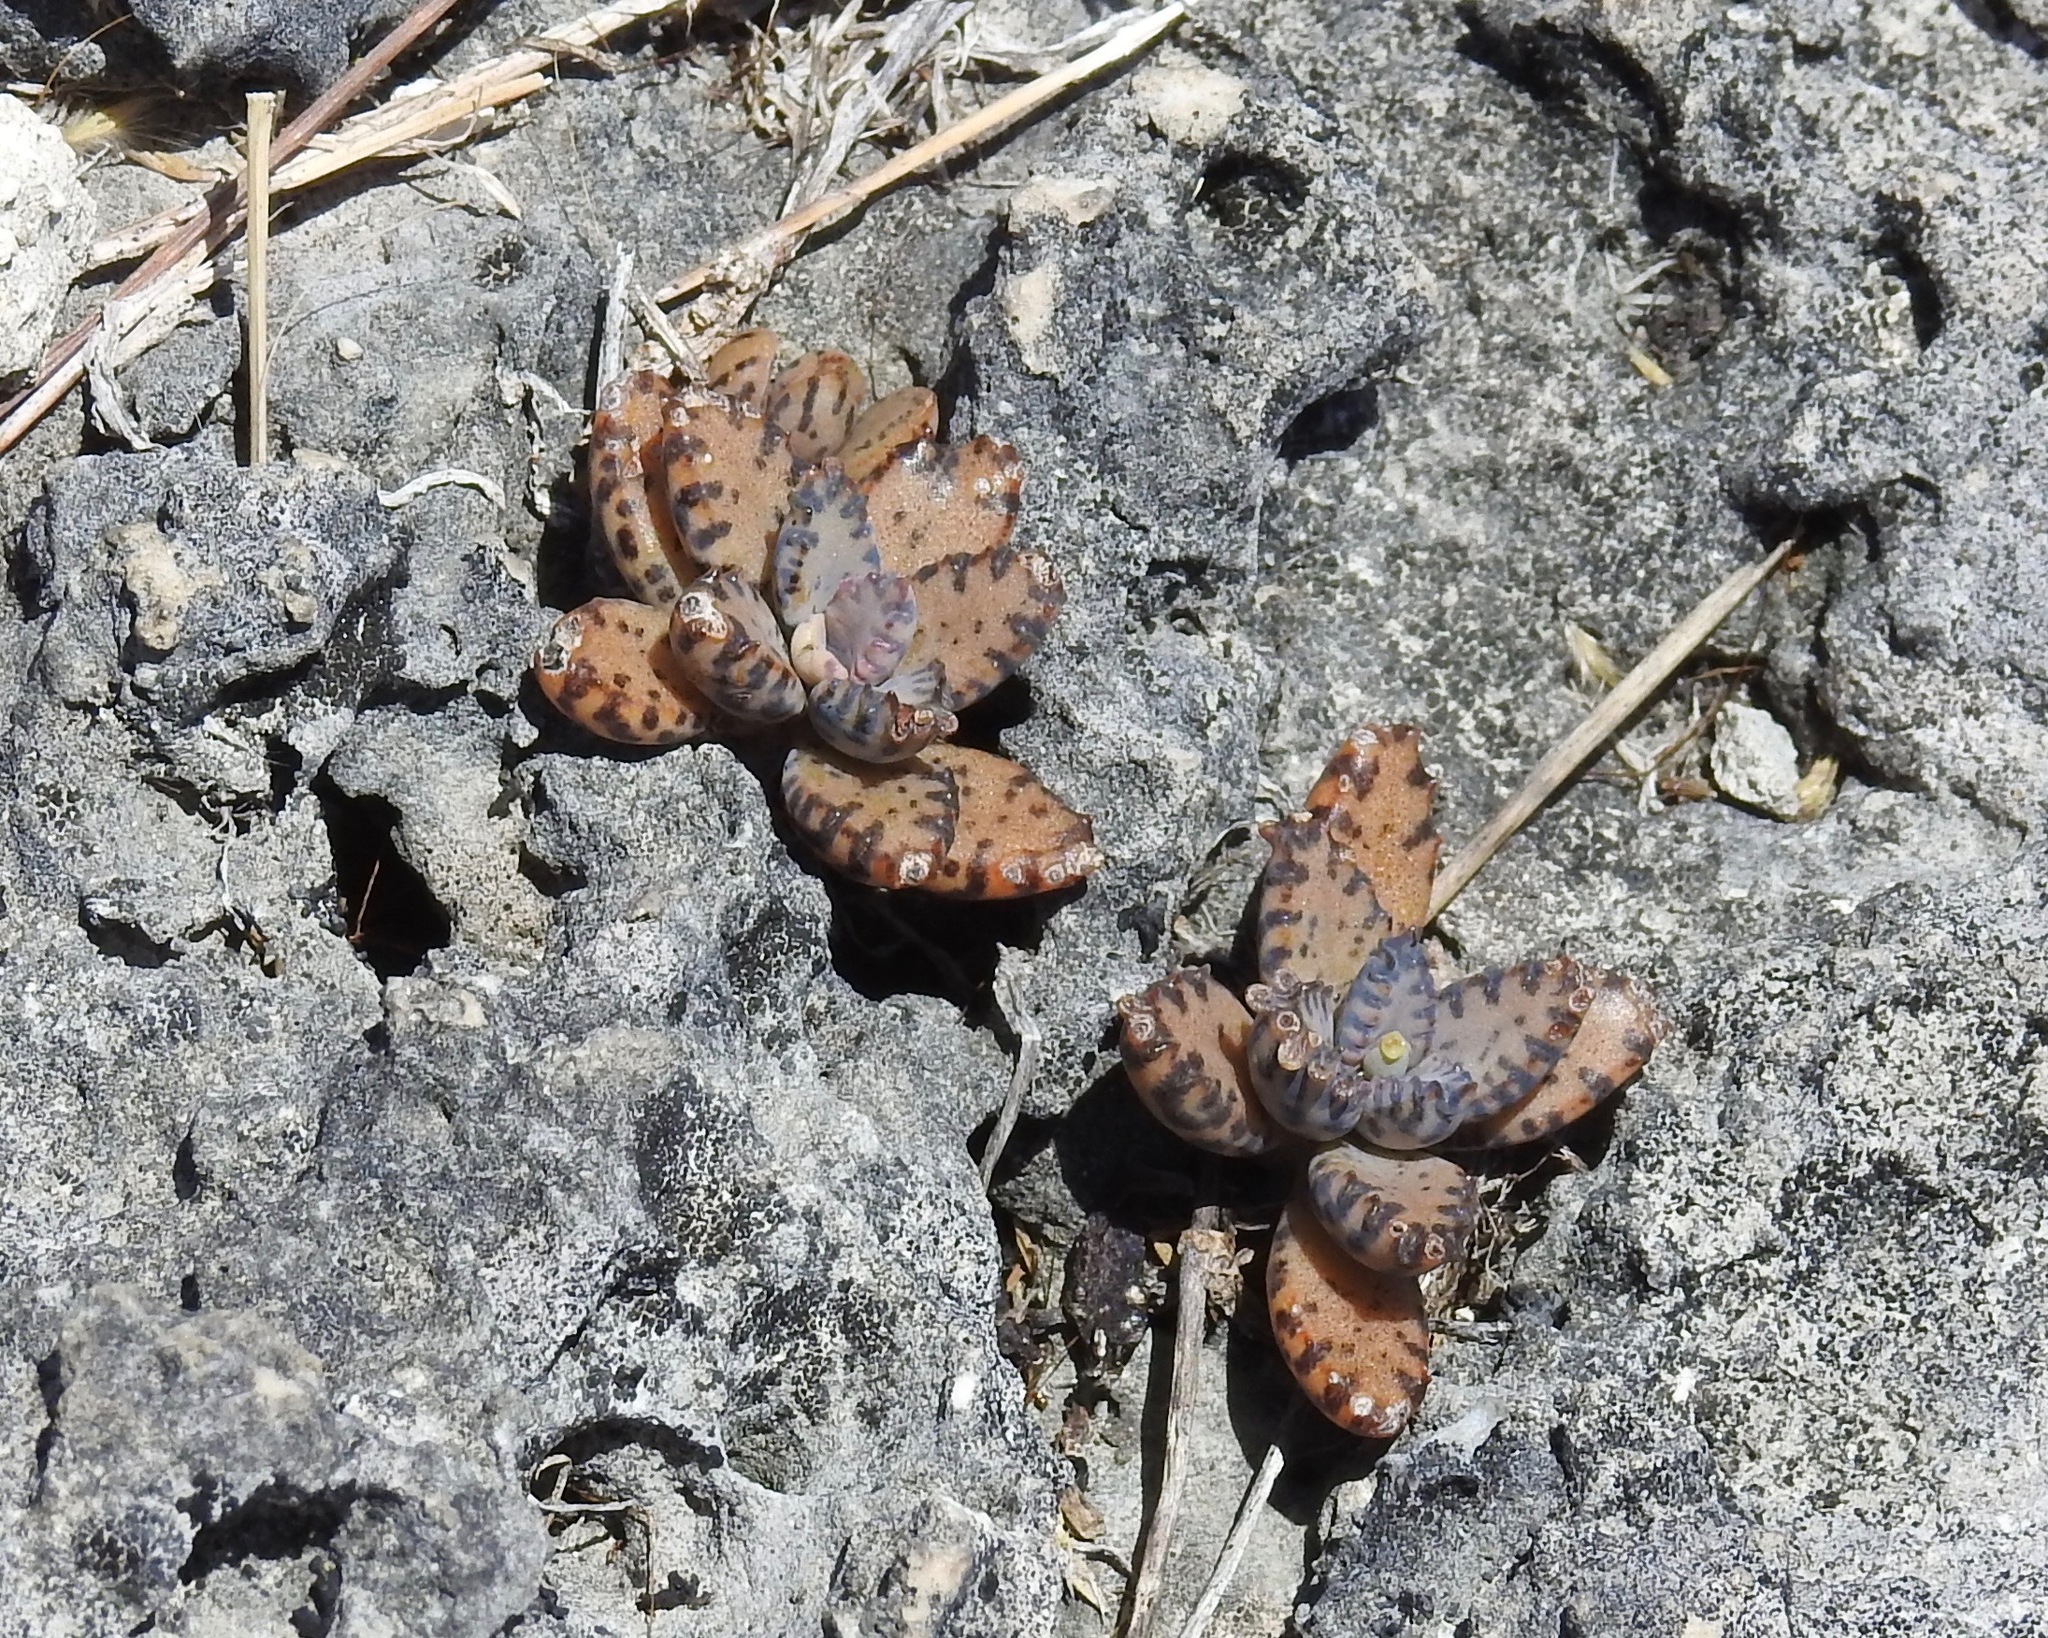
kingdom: Plantae
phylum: Tracheophyta
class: Magnoliopsida
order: Saxifragales
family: Crassulaceae
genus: Kalanchoe
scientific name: Kalanchoe houghtonii
